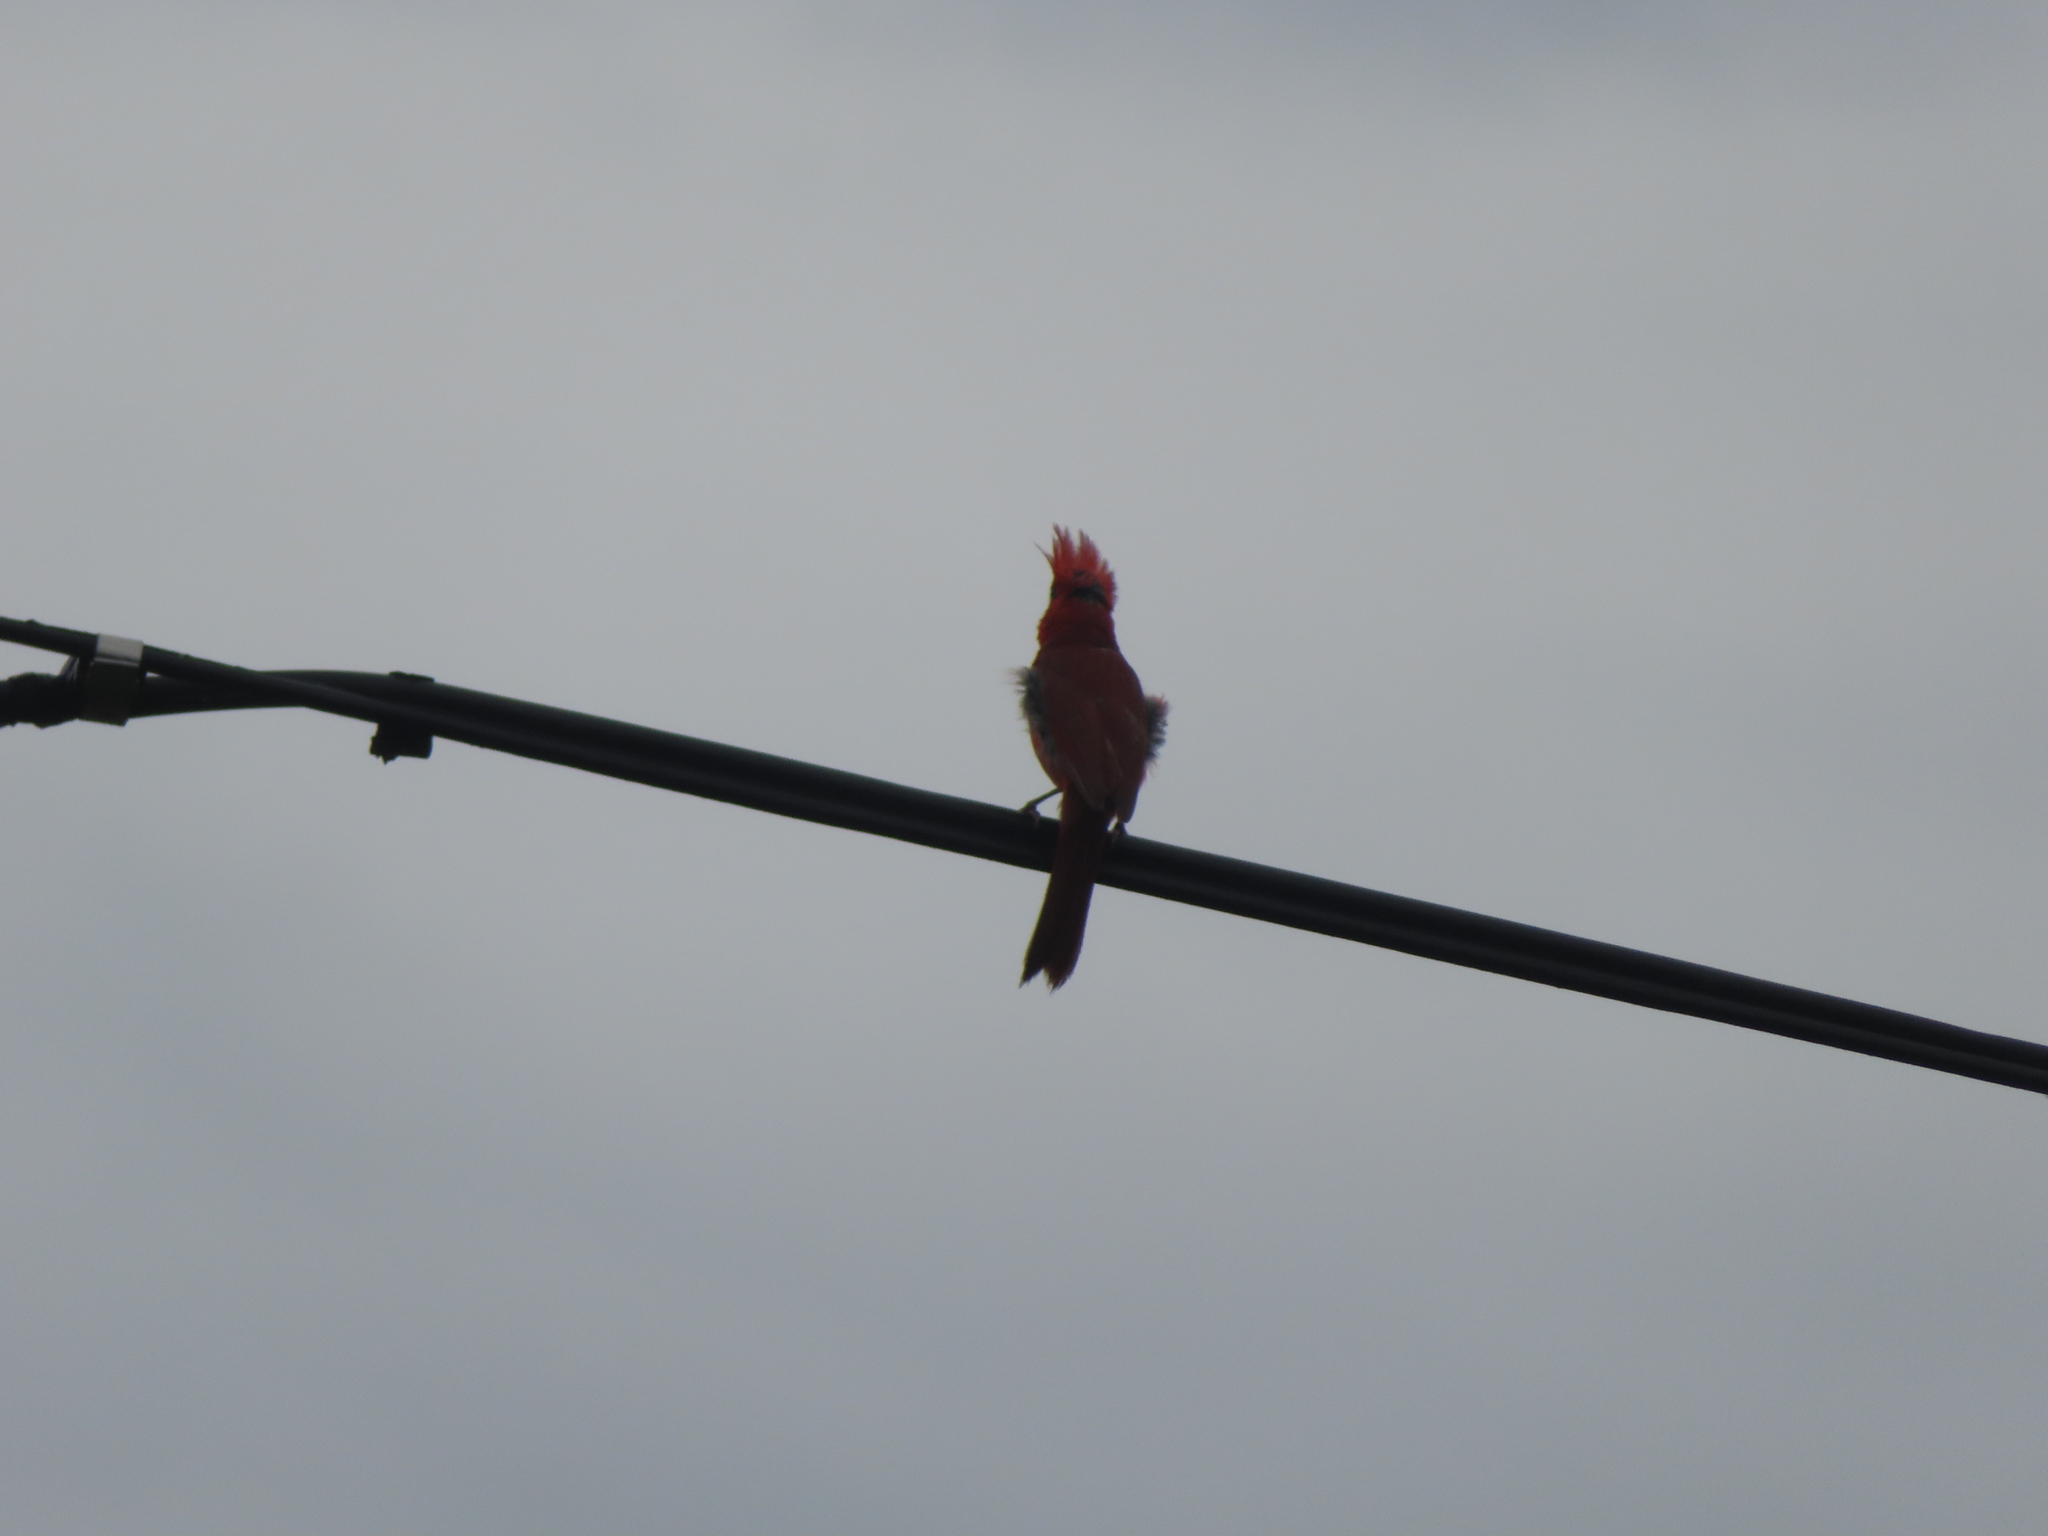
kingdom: Animalia
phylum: Chordata
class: Aves
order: Passeriformes
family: Cardinalidae
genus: Cardinalis
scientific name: Cardinalis cardinalis
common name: Northern cardinal
